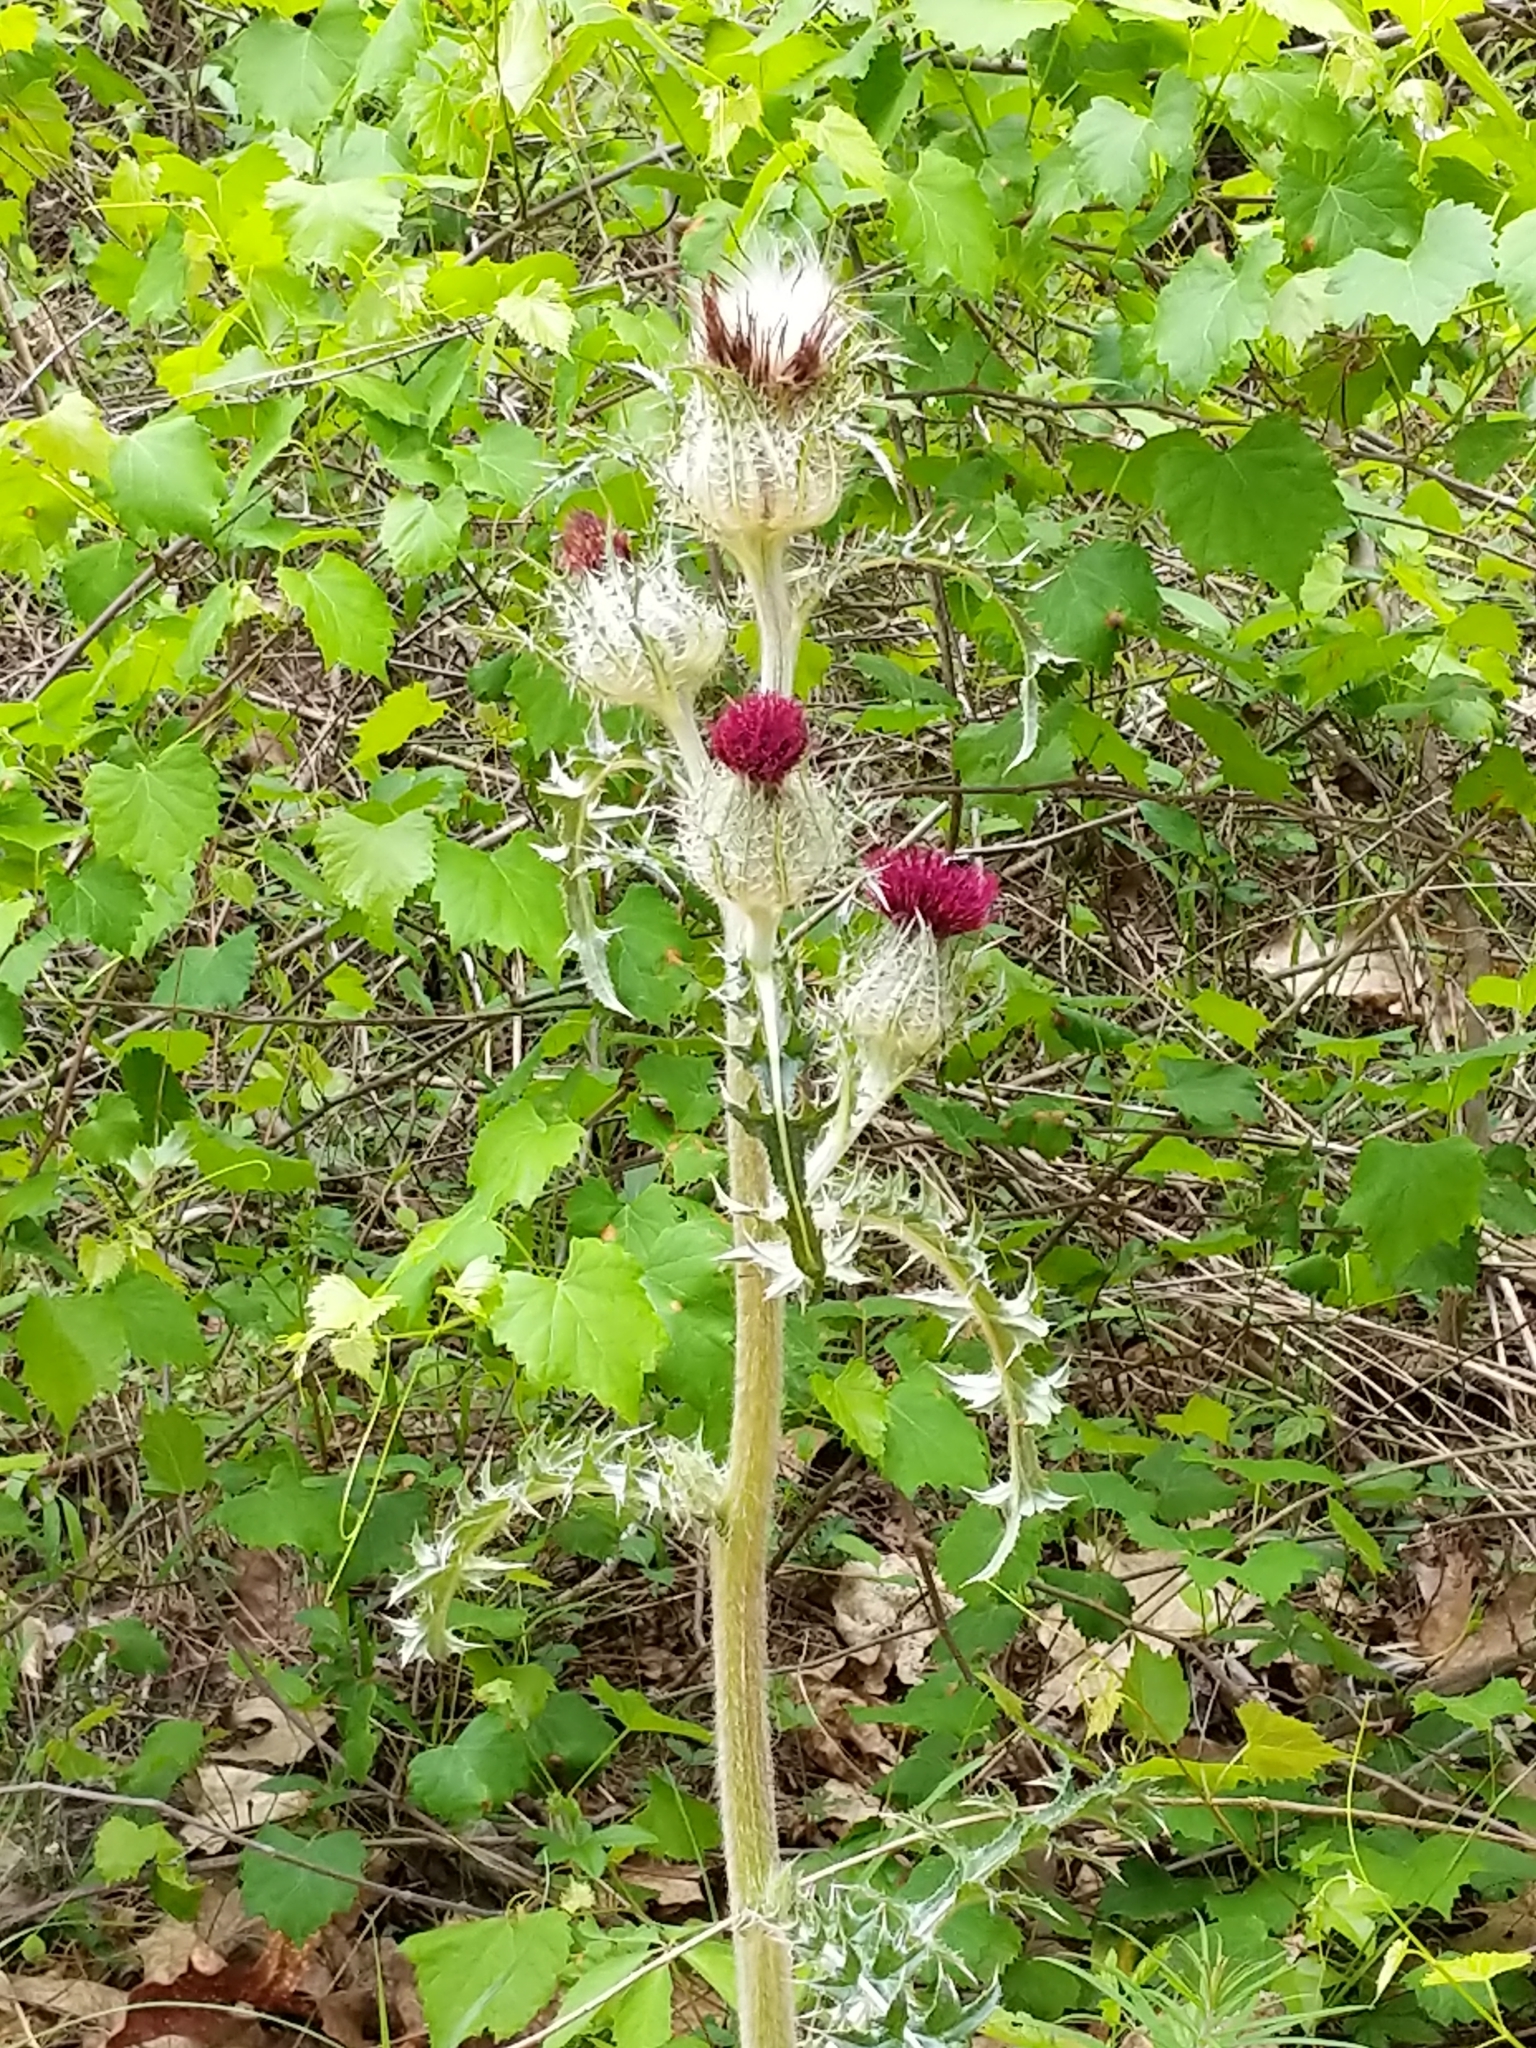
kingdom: Plantae
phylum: Tracheophyta
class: Magnoliopsida
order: Asterales
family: Asteraceae
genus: Cirsium
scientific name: Cirsium horridulum
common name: Bristly thistle
